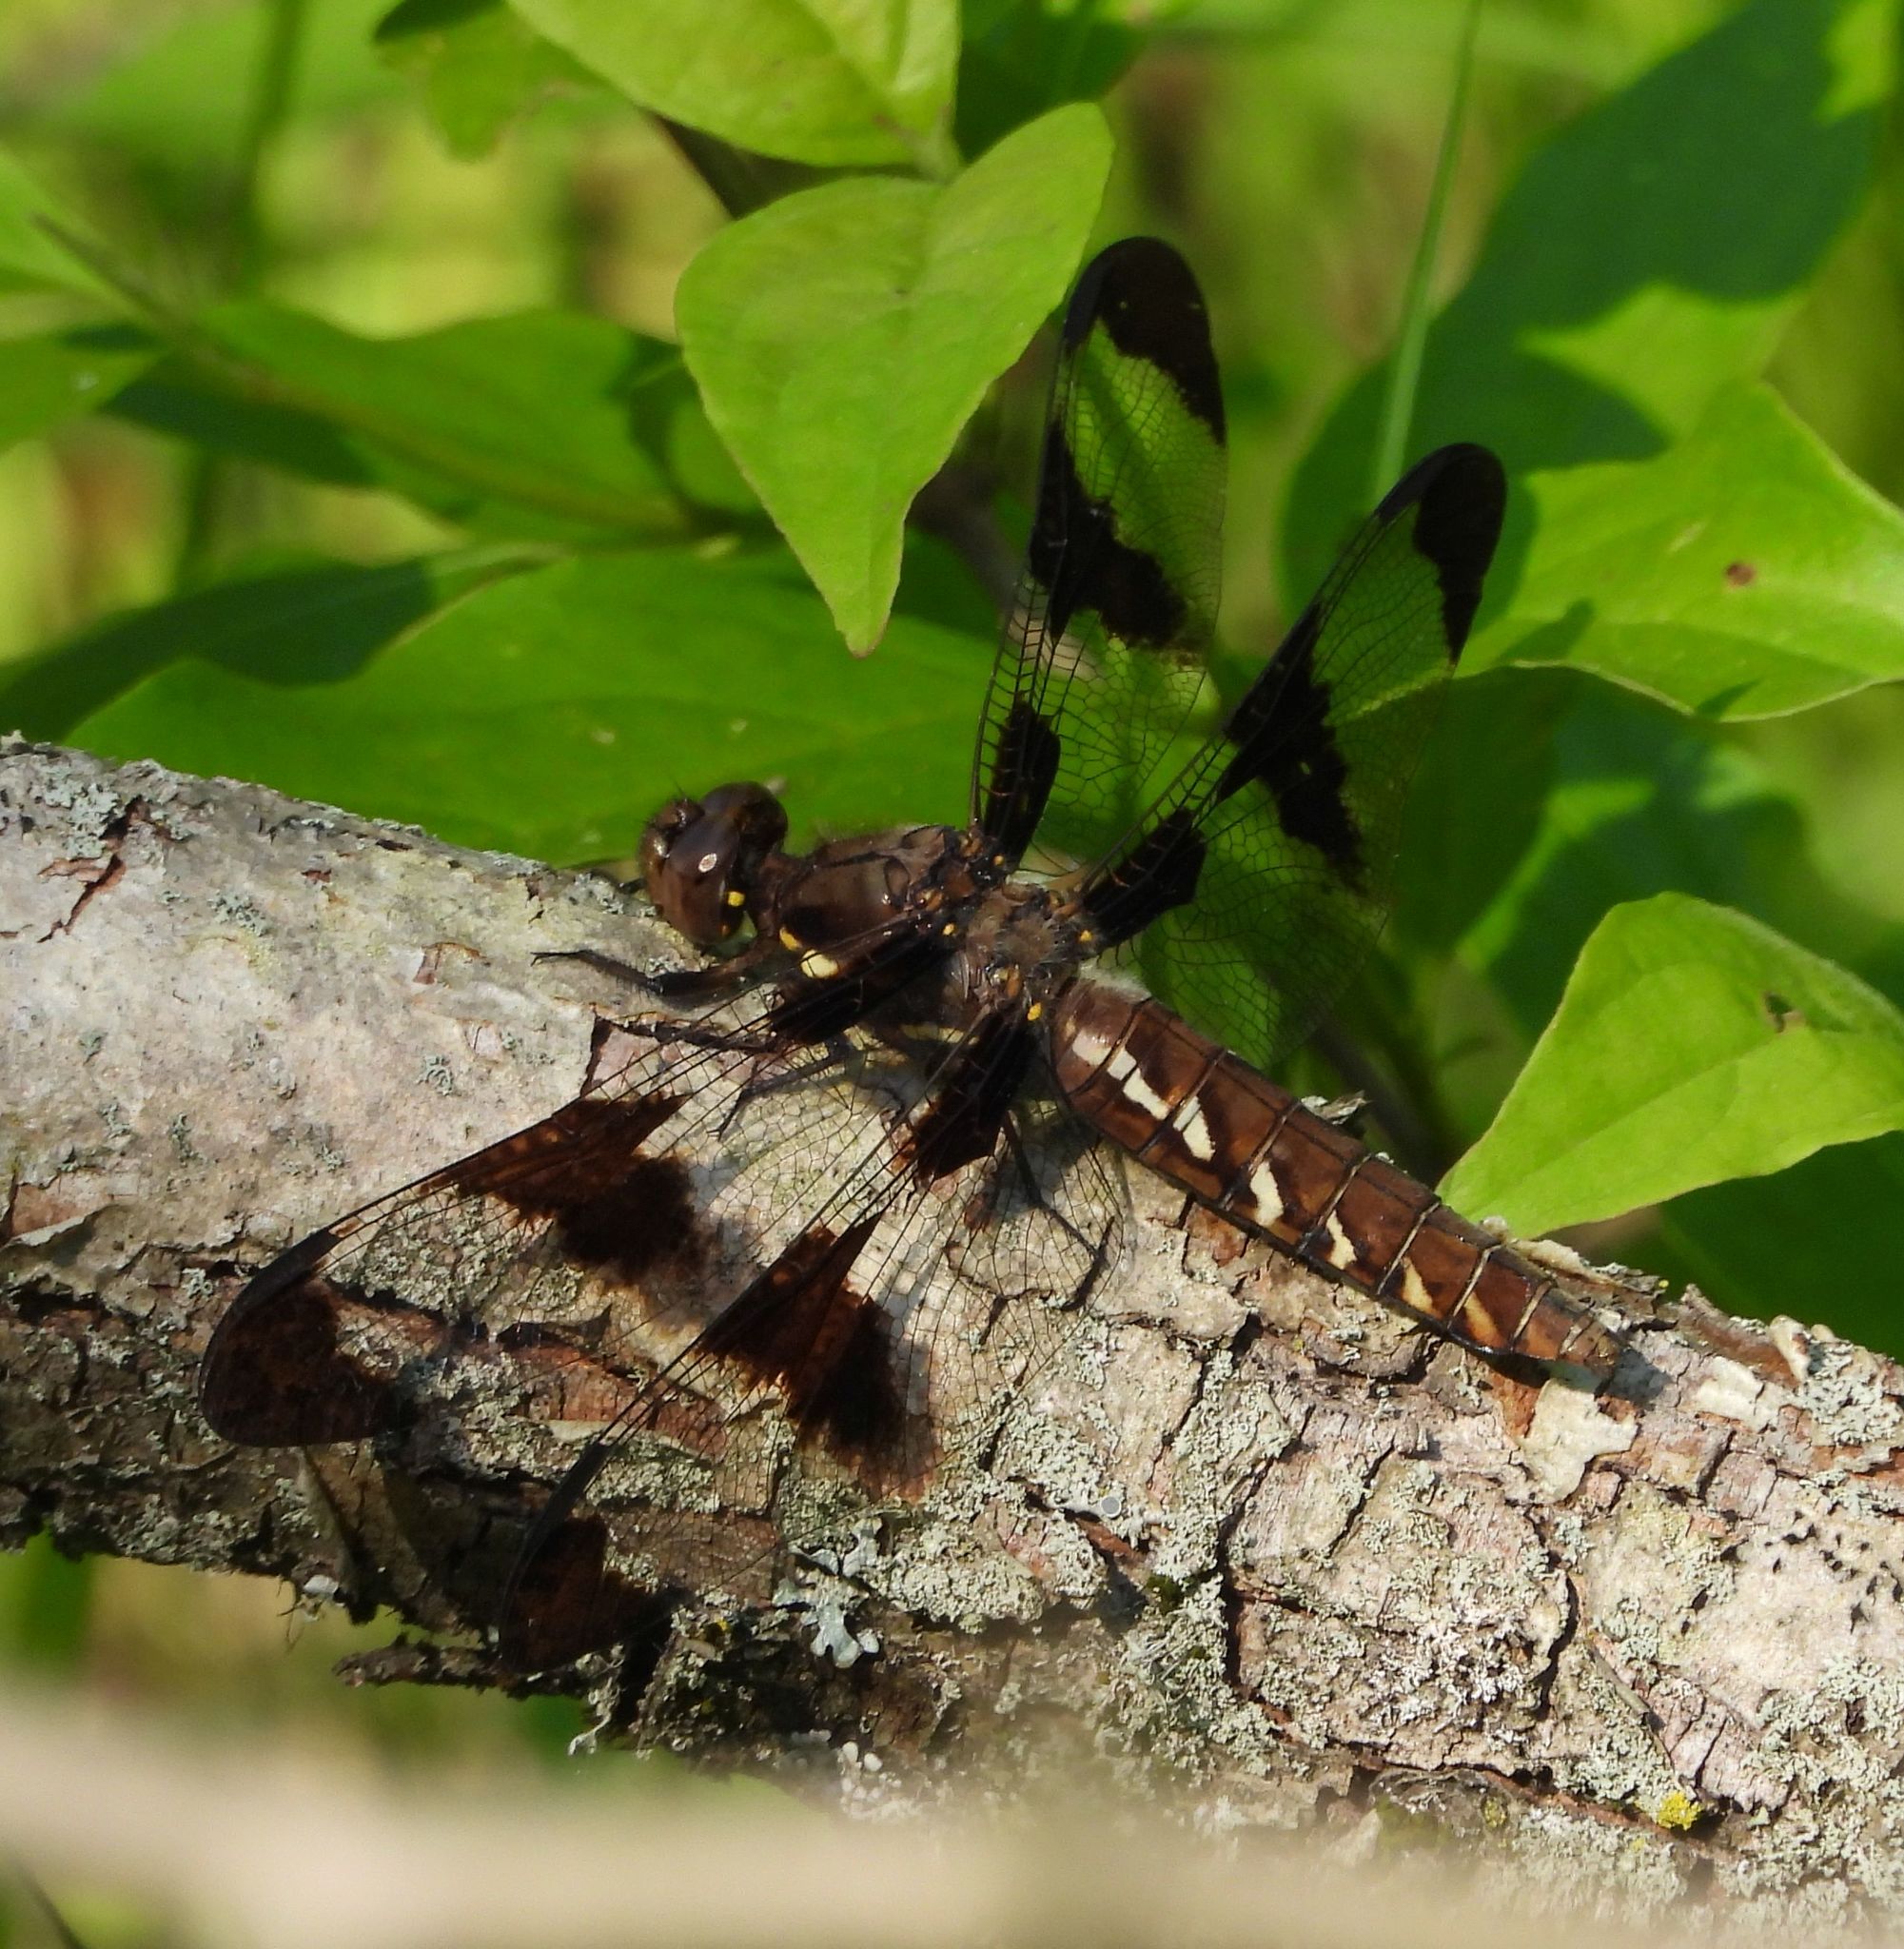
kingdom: Animalia
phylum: Arthropoda
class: Insecta
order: Odonata
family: Libellulidae
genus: Plathemis
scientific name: Plathemis lydia
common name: Common whitetail
